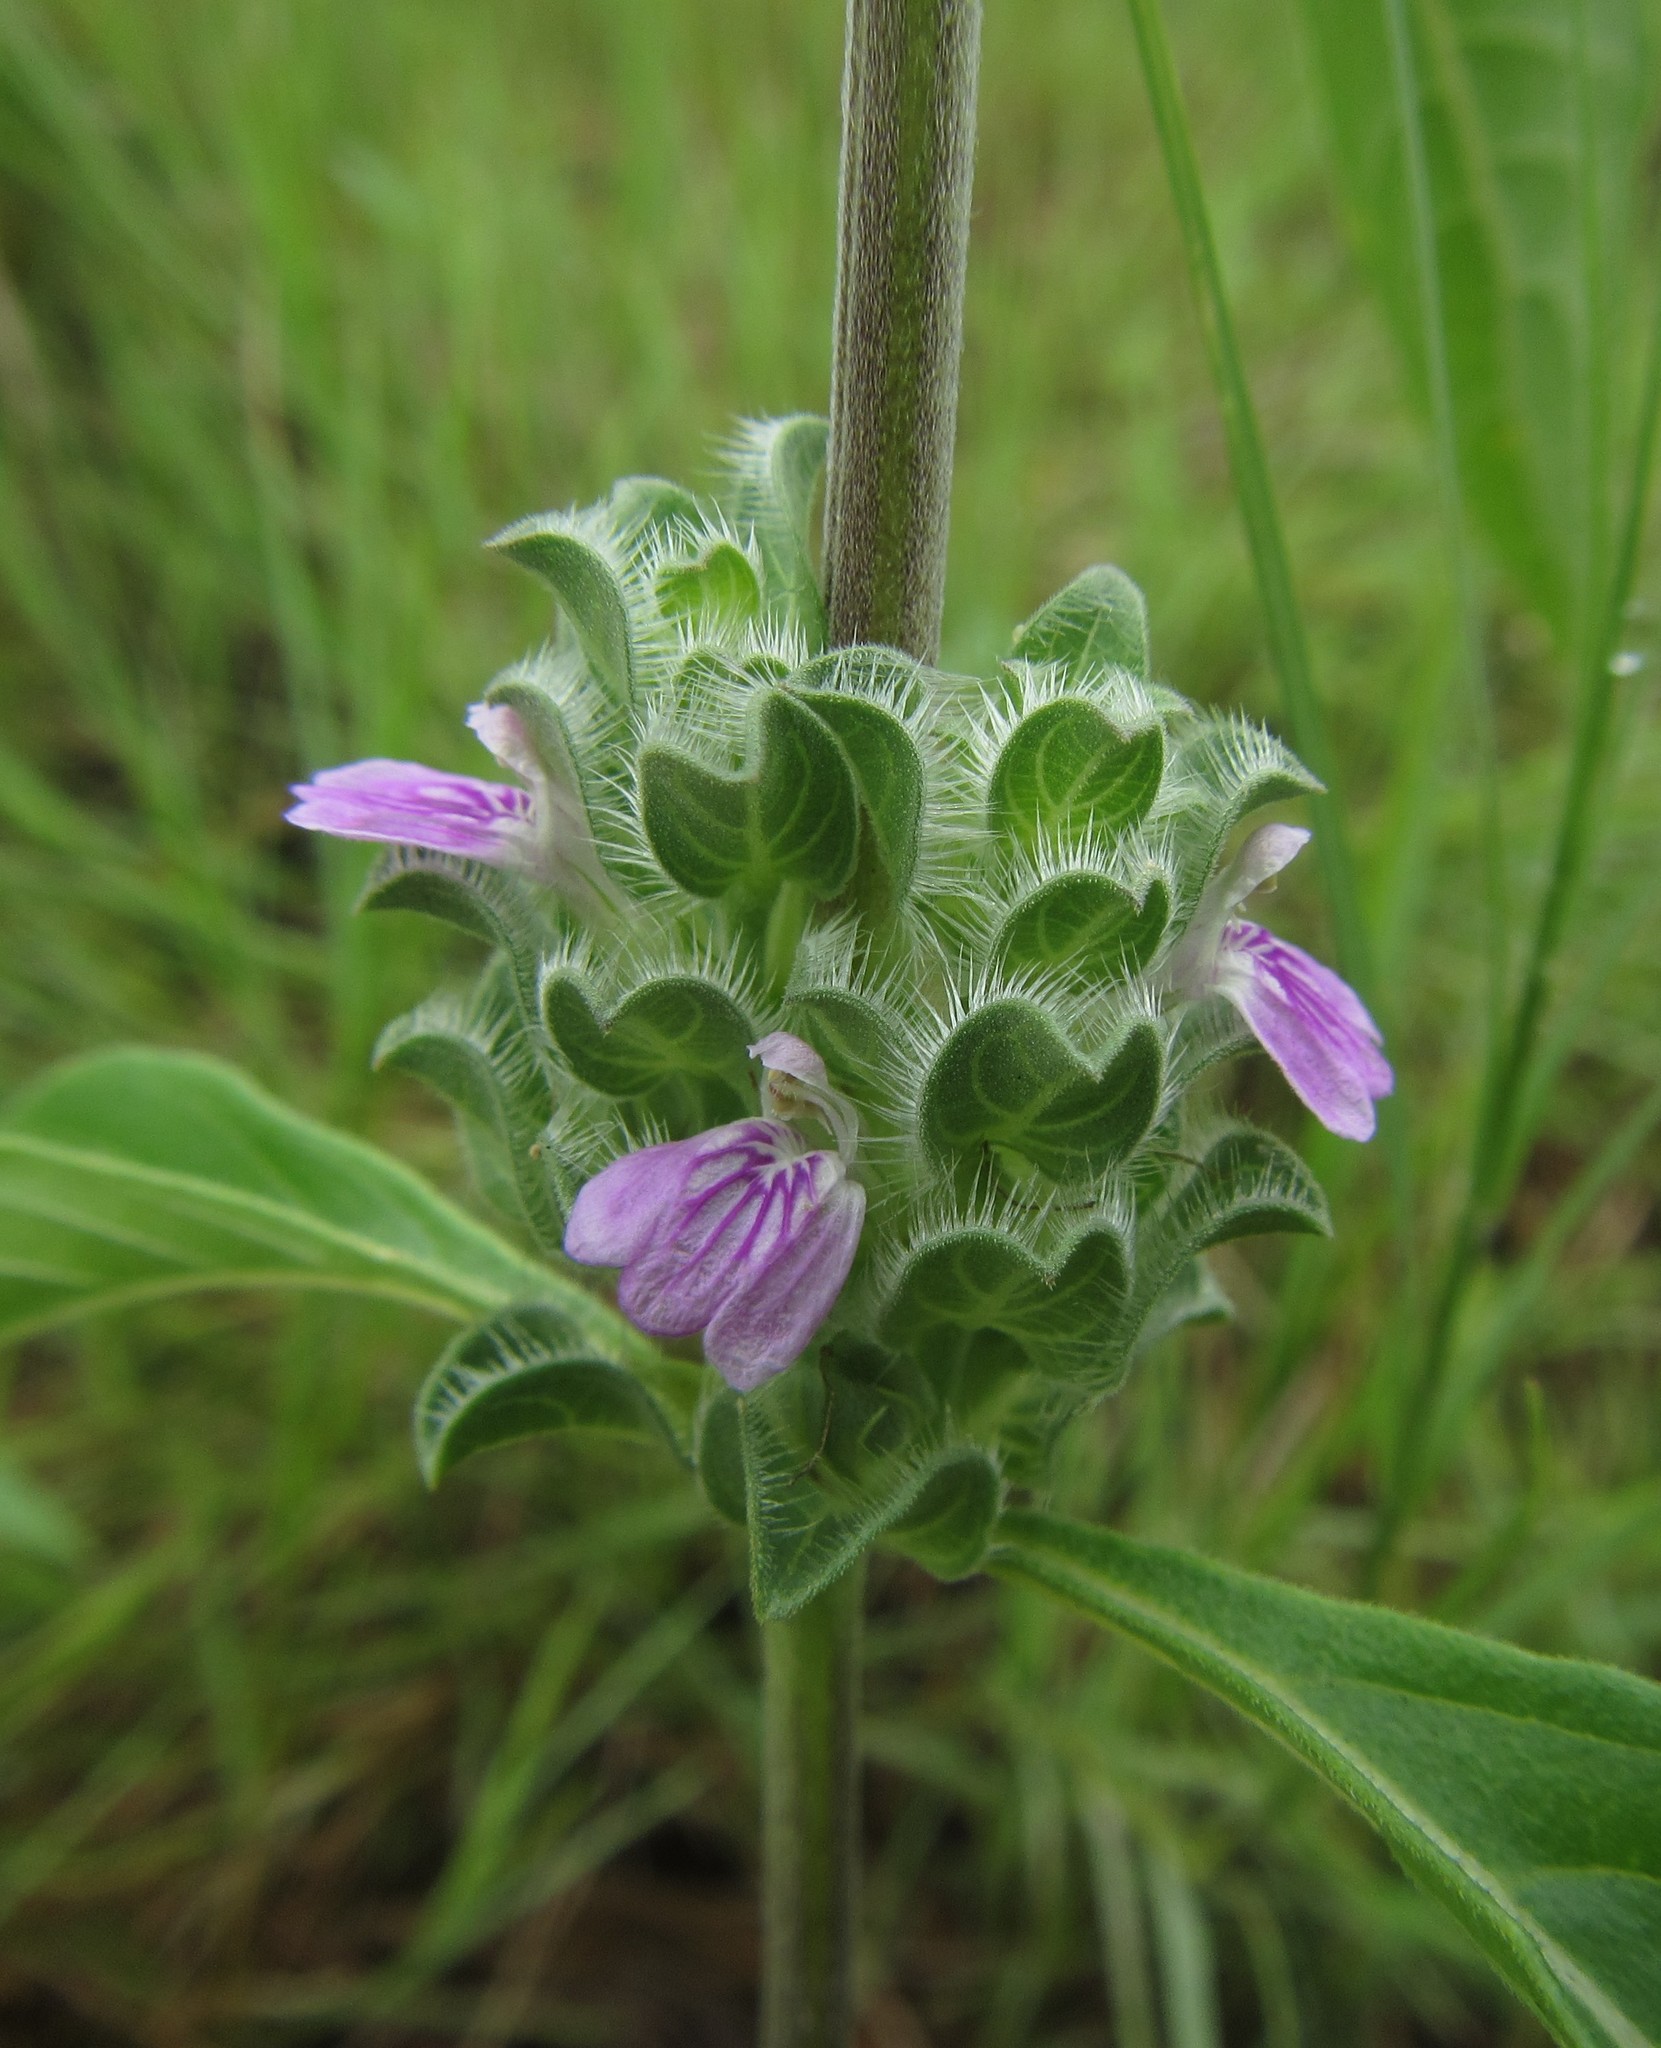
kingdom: Plantae
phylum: Tracheophyta
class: Magnoliopsida
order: Lamiales
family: Acanthaceae
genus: Monechma
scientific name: Monechma
